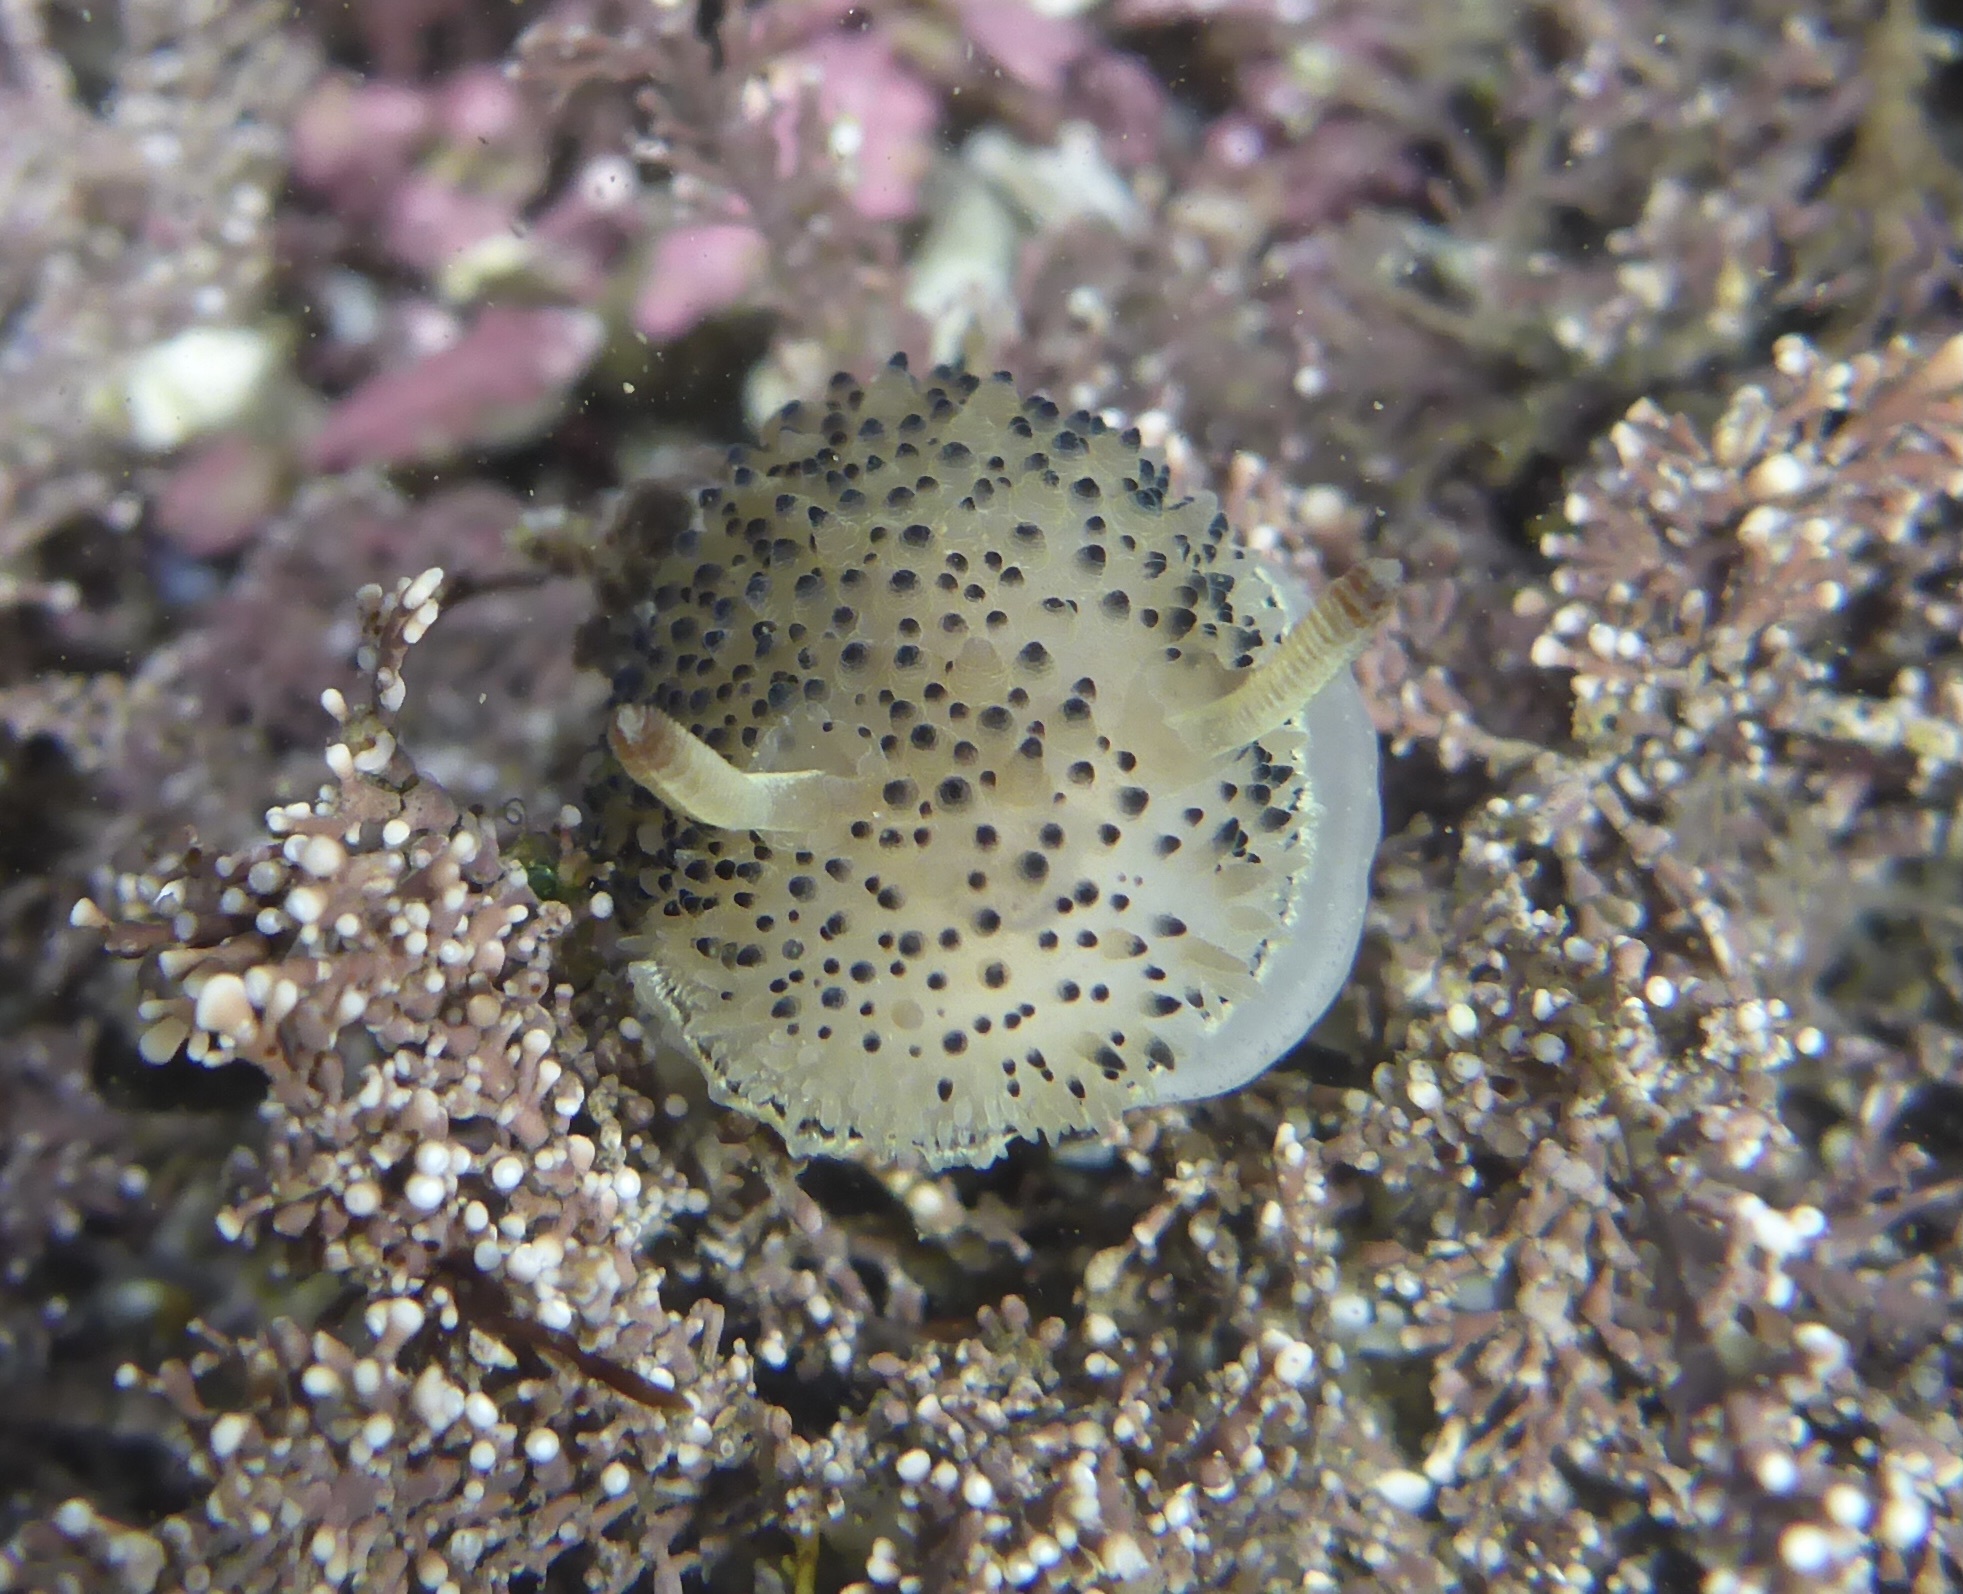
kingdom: Animalia
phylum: Mollusca
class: Gastropoda
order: Nudibranchia
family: Onchidorididae
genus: Acanthodoris
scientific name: Acanthodoris rhodoceras
